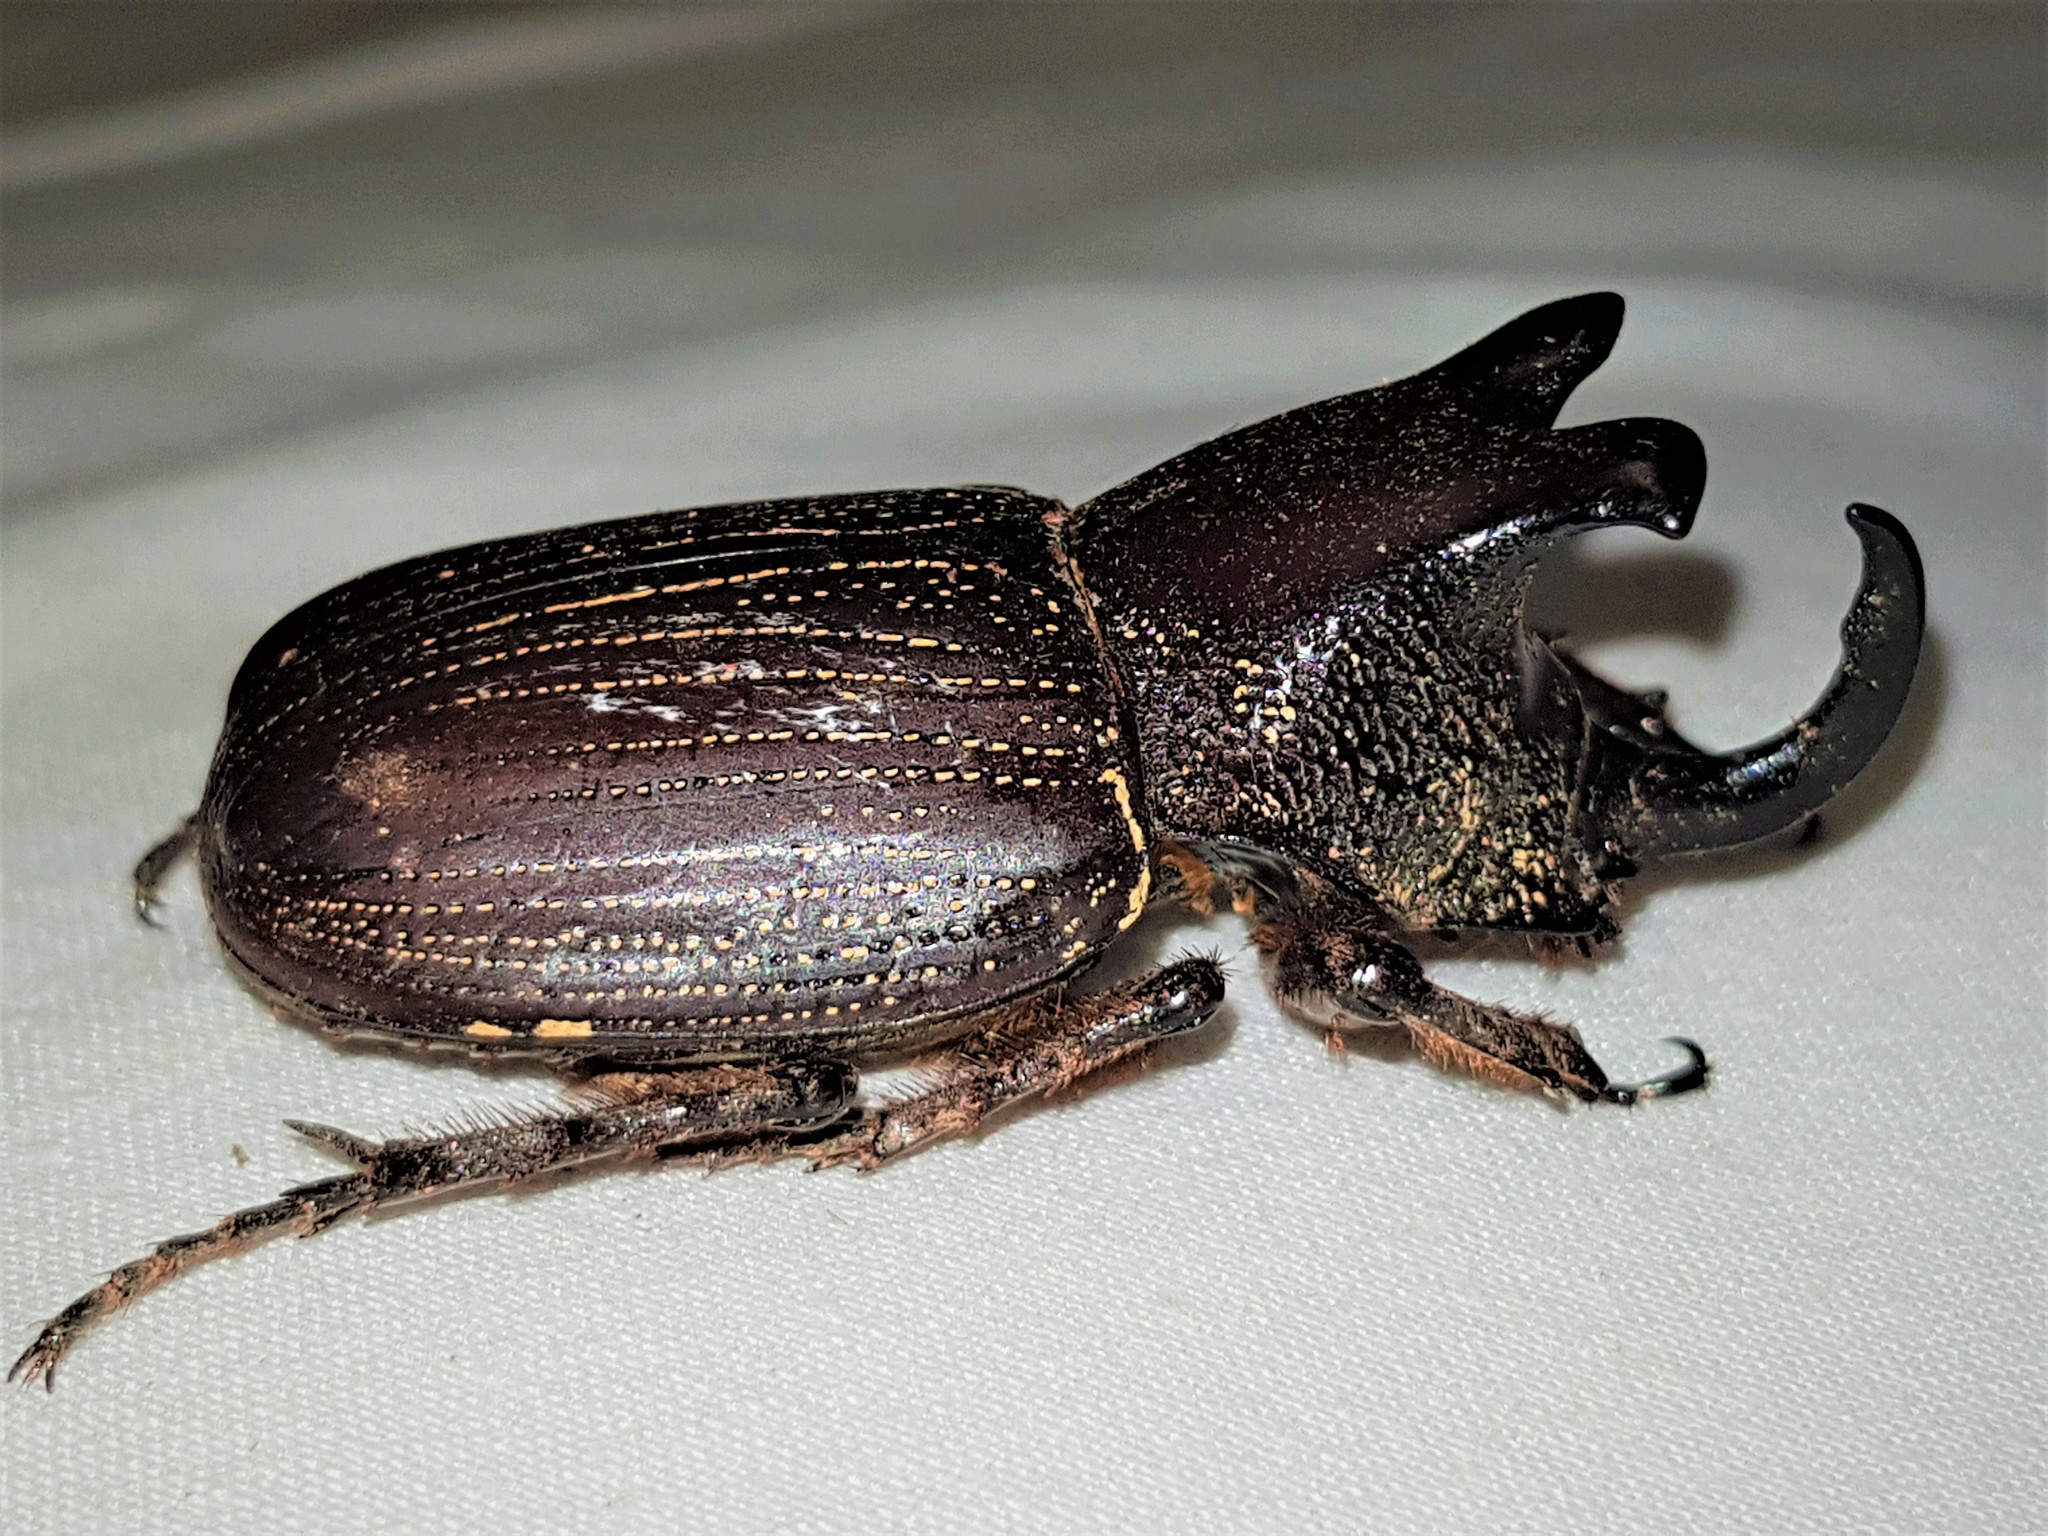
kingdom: Animalia
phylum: Arthropoda
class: Insecta
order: Coleoptera
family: Scarabaeidae
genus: Coelosis
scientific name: Coelosis biloba
